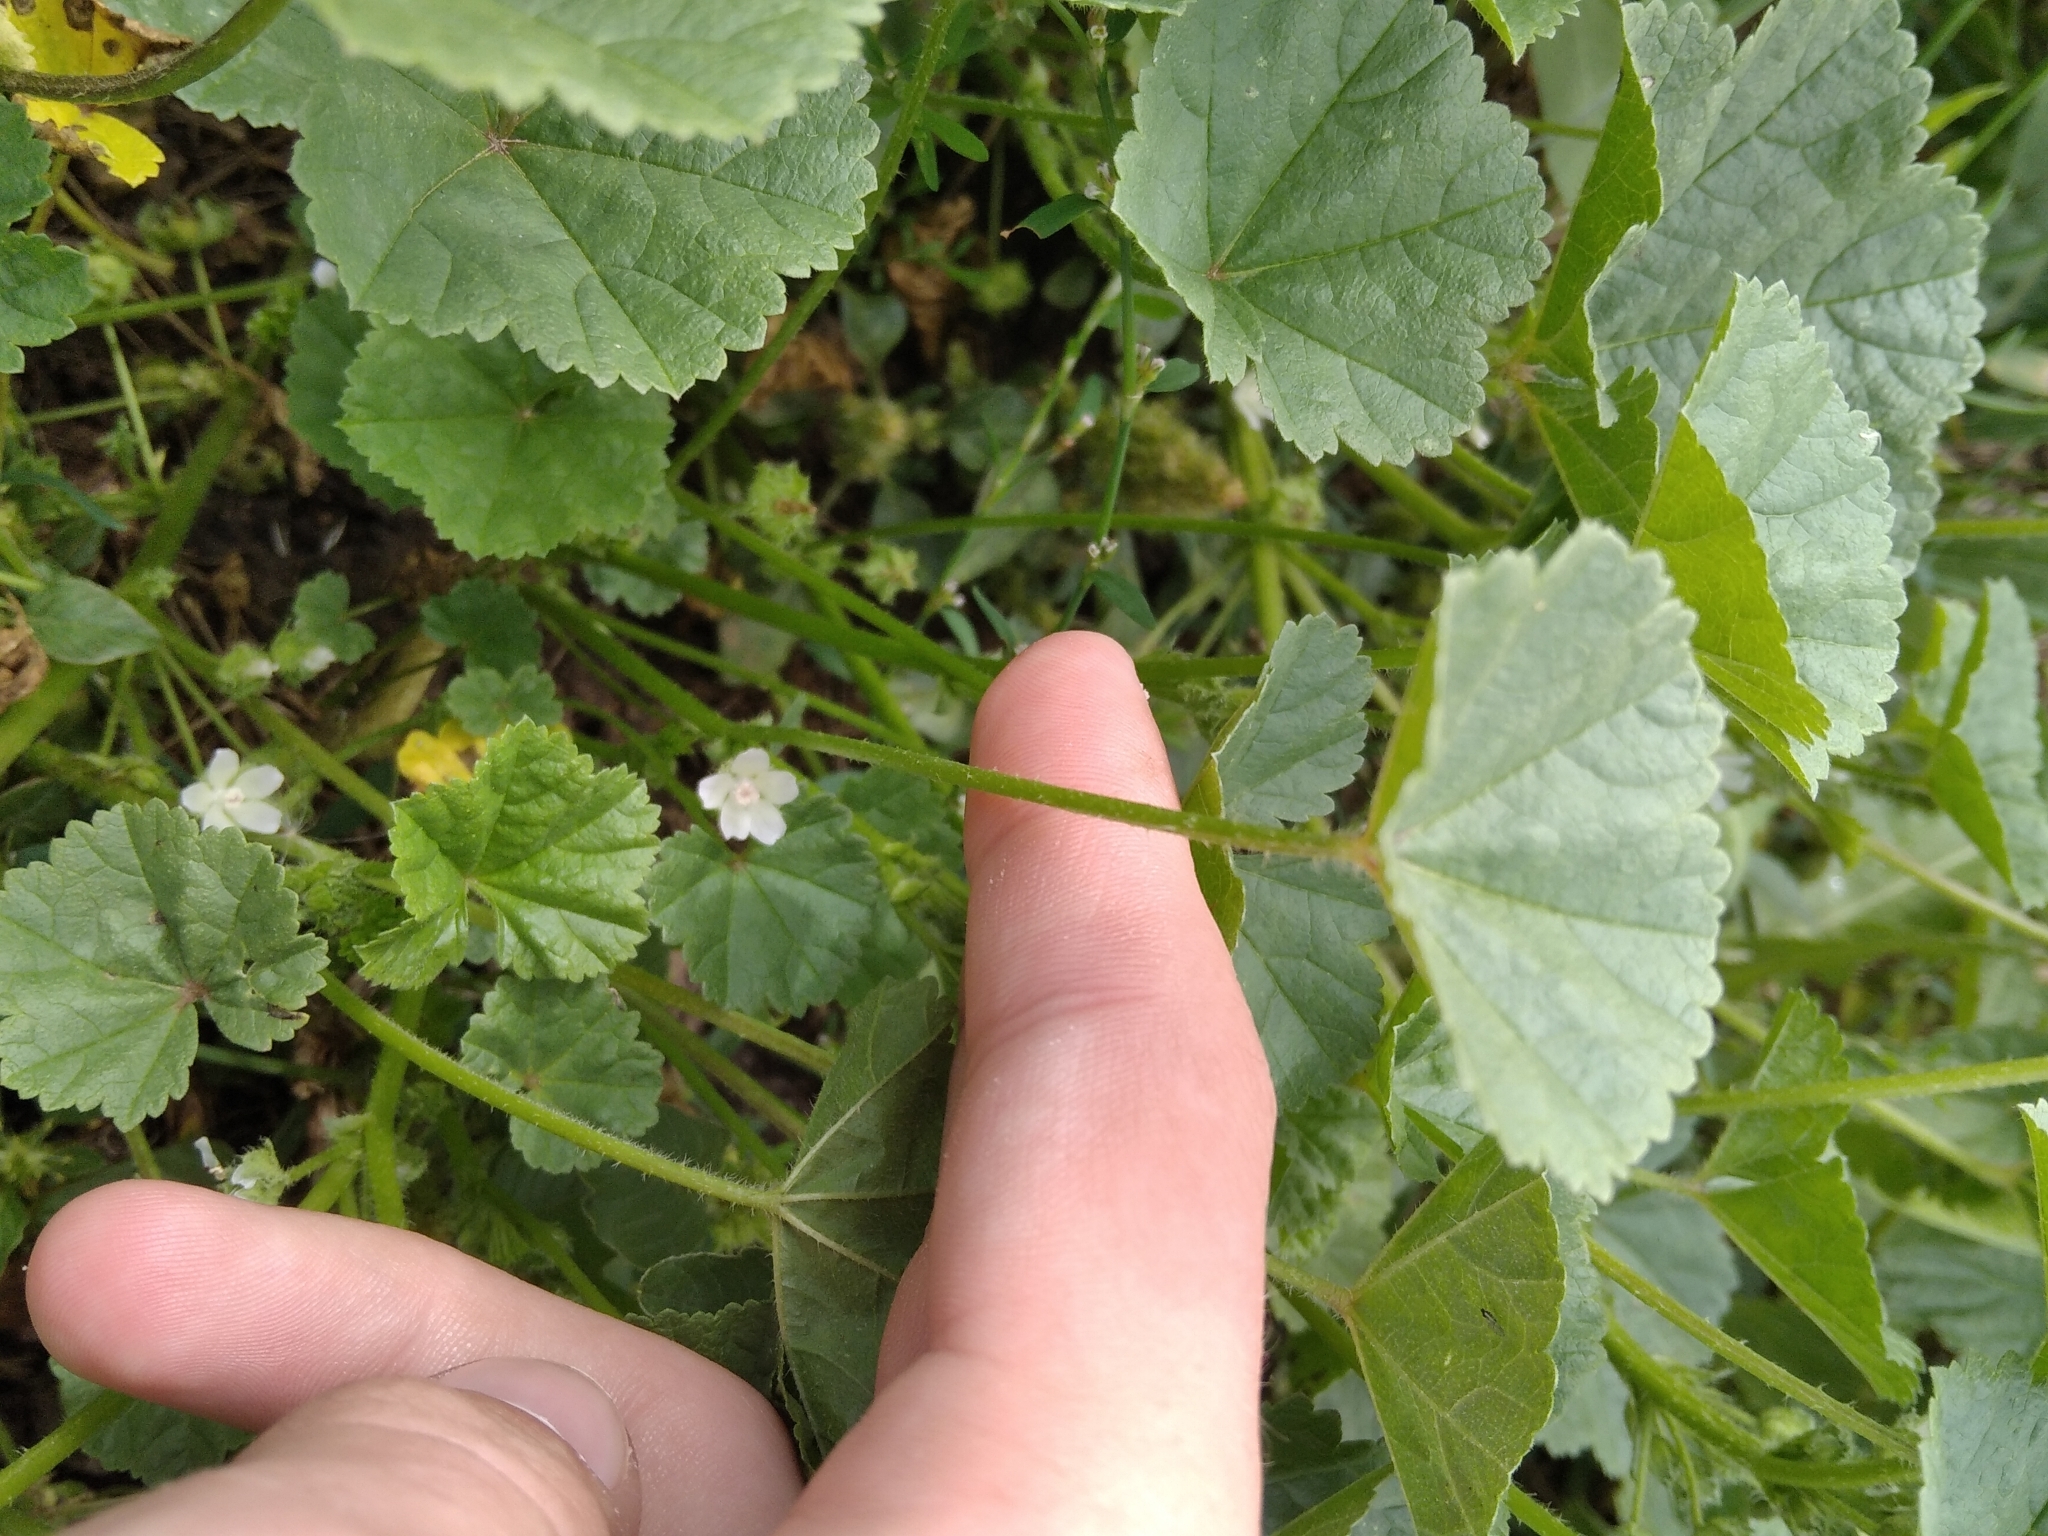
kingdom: Plantae
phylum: Tracheophyta
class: Magnoliopsida
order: Malvales
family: Malvaceae
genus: Malva
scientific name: Malva pusilla
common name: Small mallow
